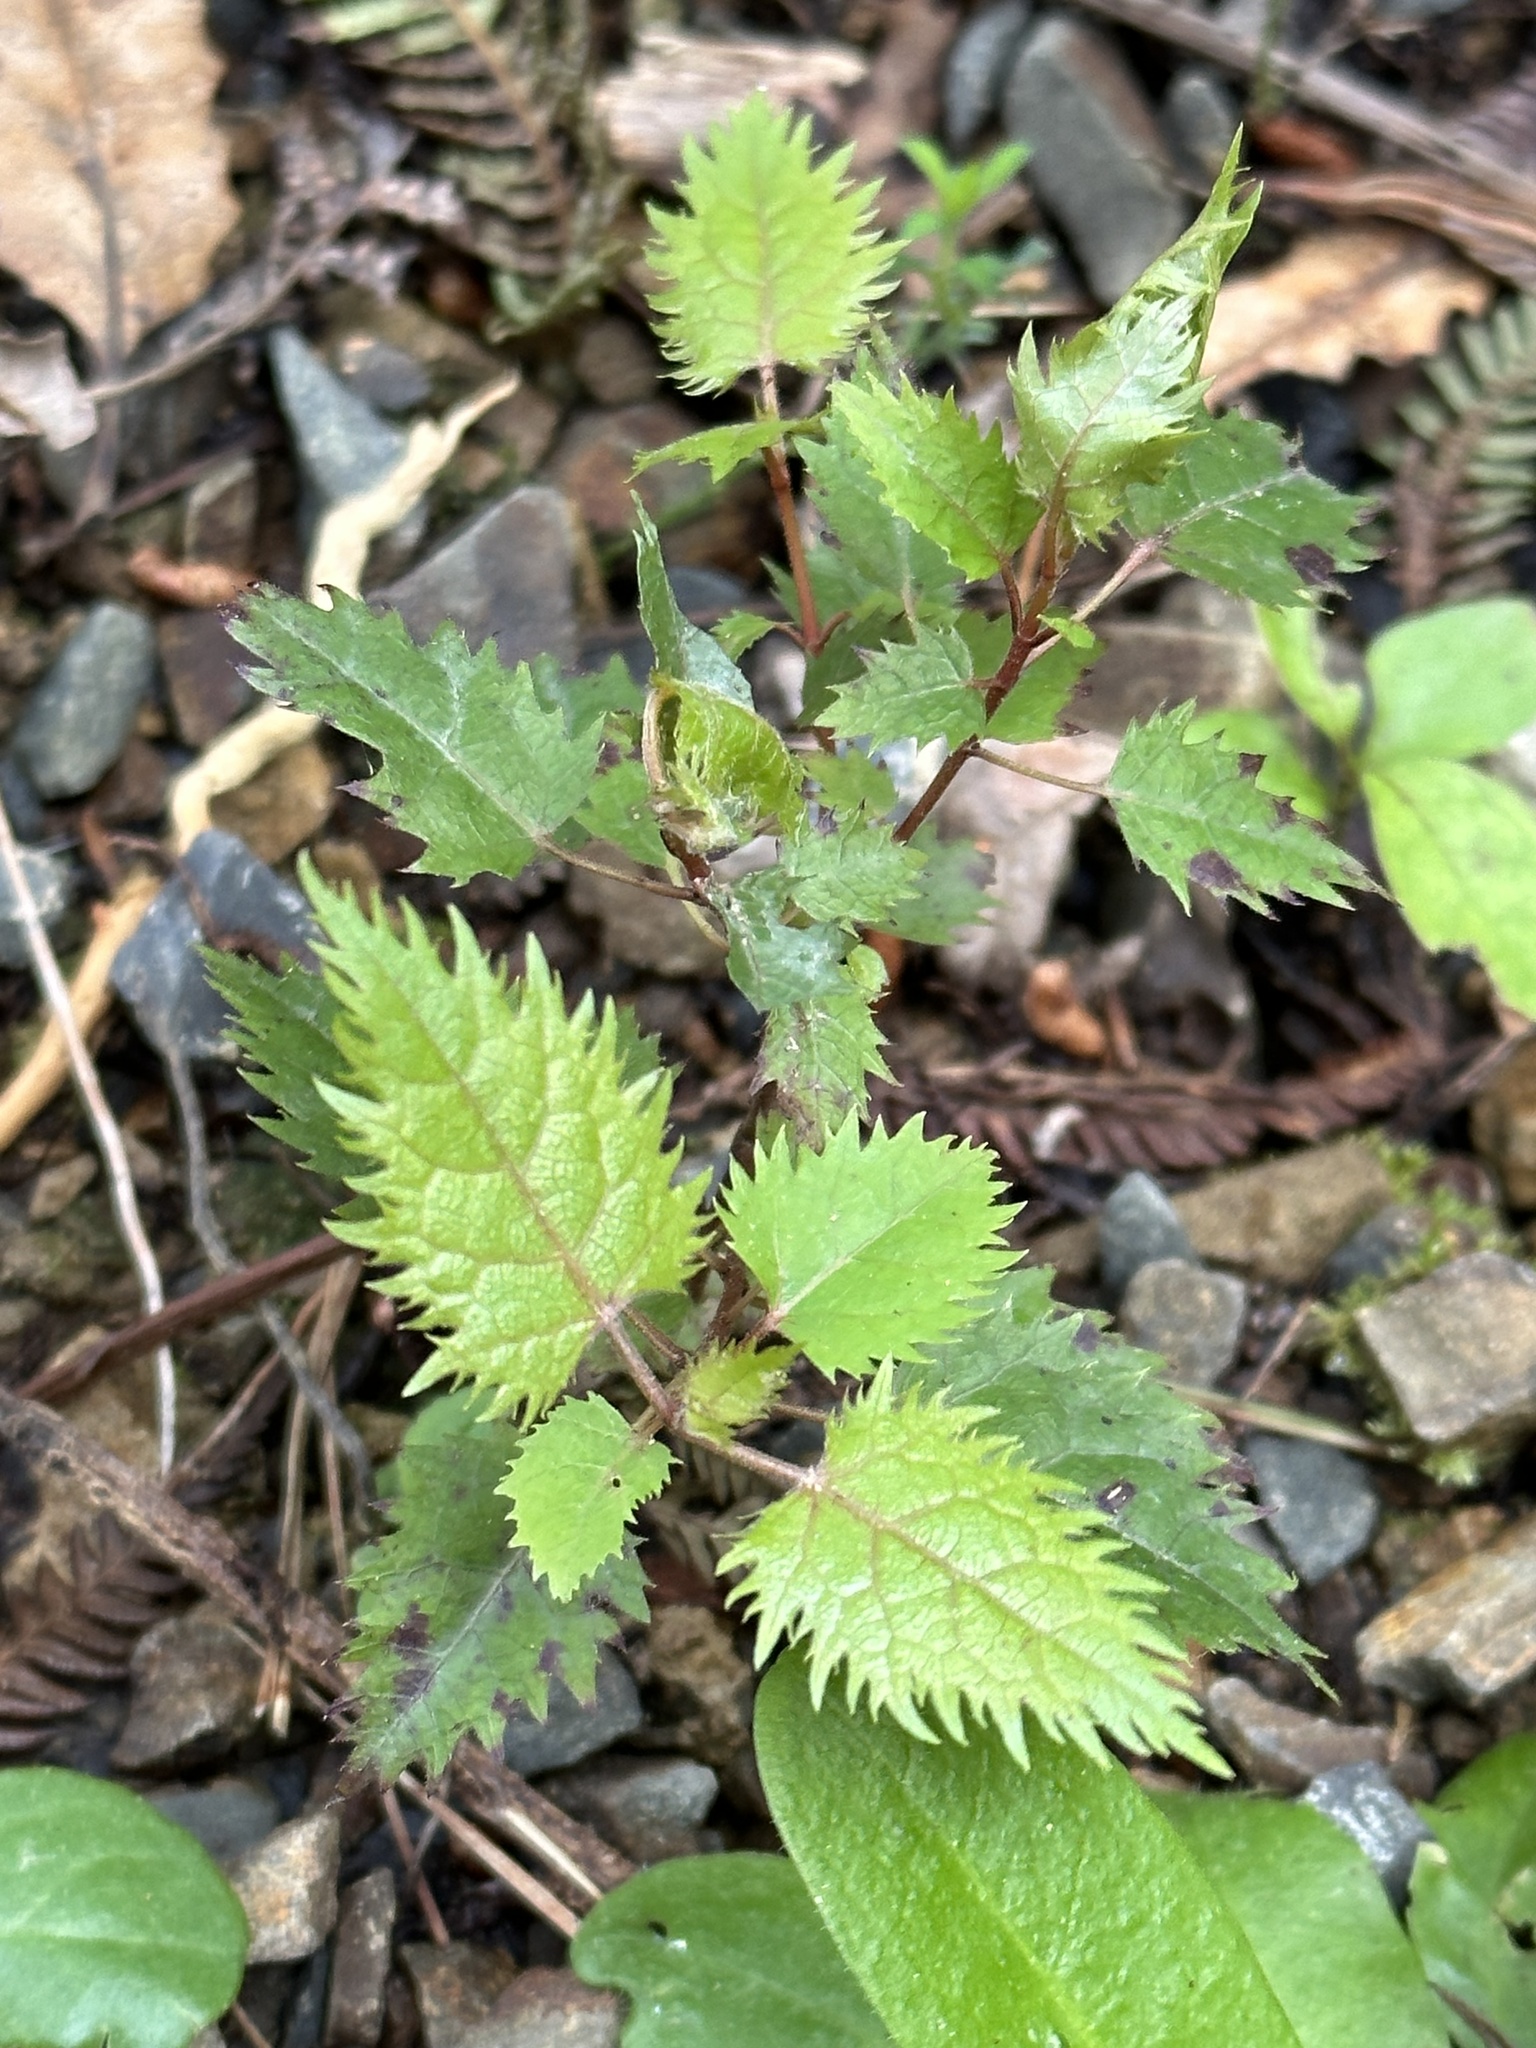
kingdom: Plantae
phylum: Tracheophyta
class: Magnoliopsida
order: Oxalidales
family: Elaeocarpaceae
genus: Aristotelia
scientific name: Aristotelia serrata
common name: New zealand wineberry
